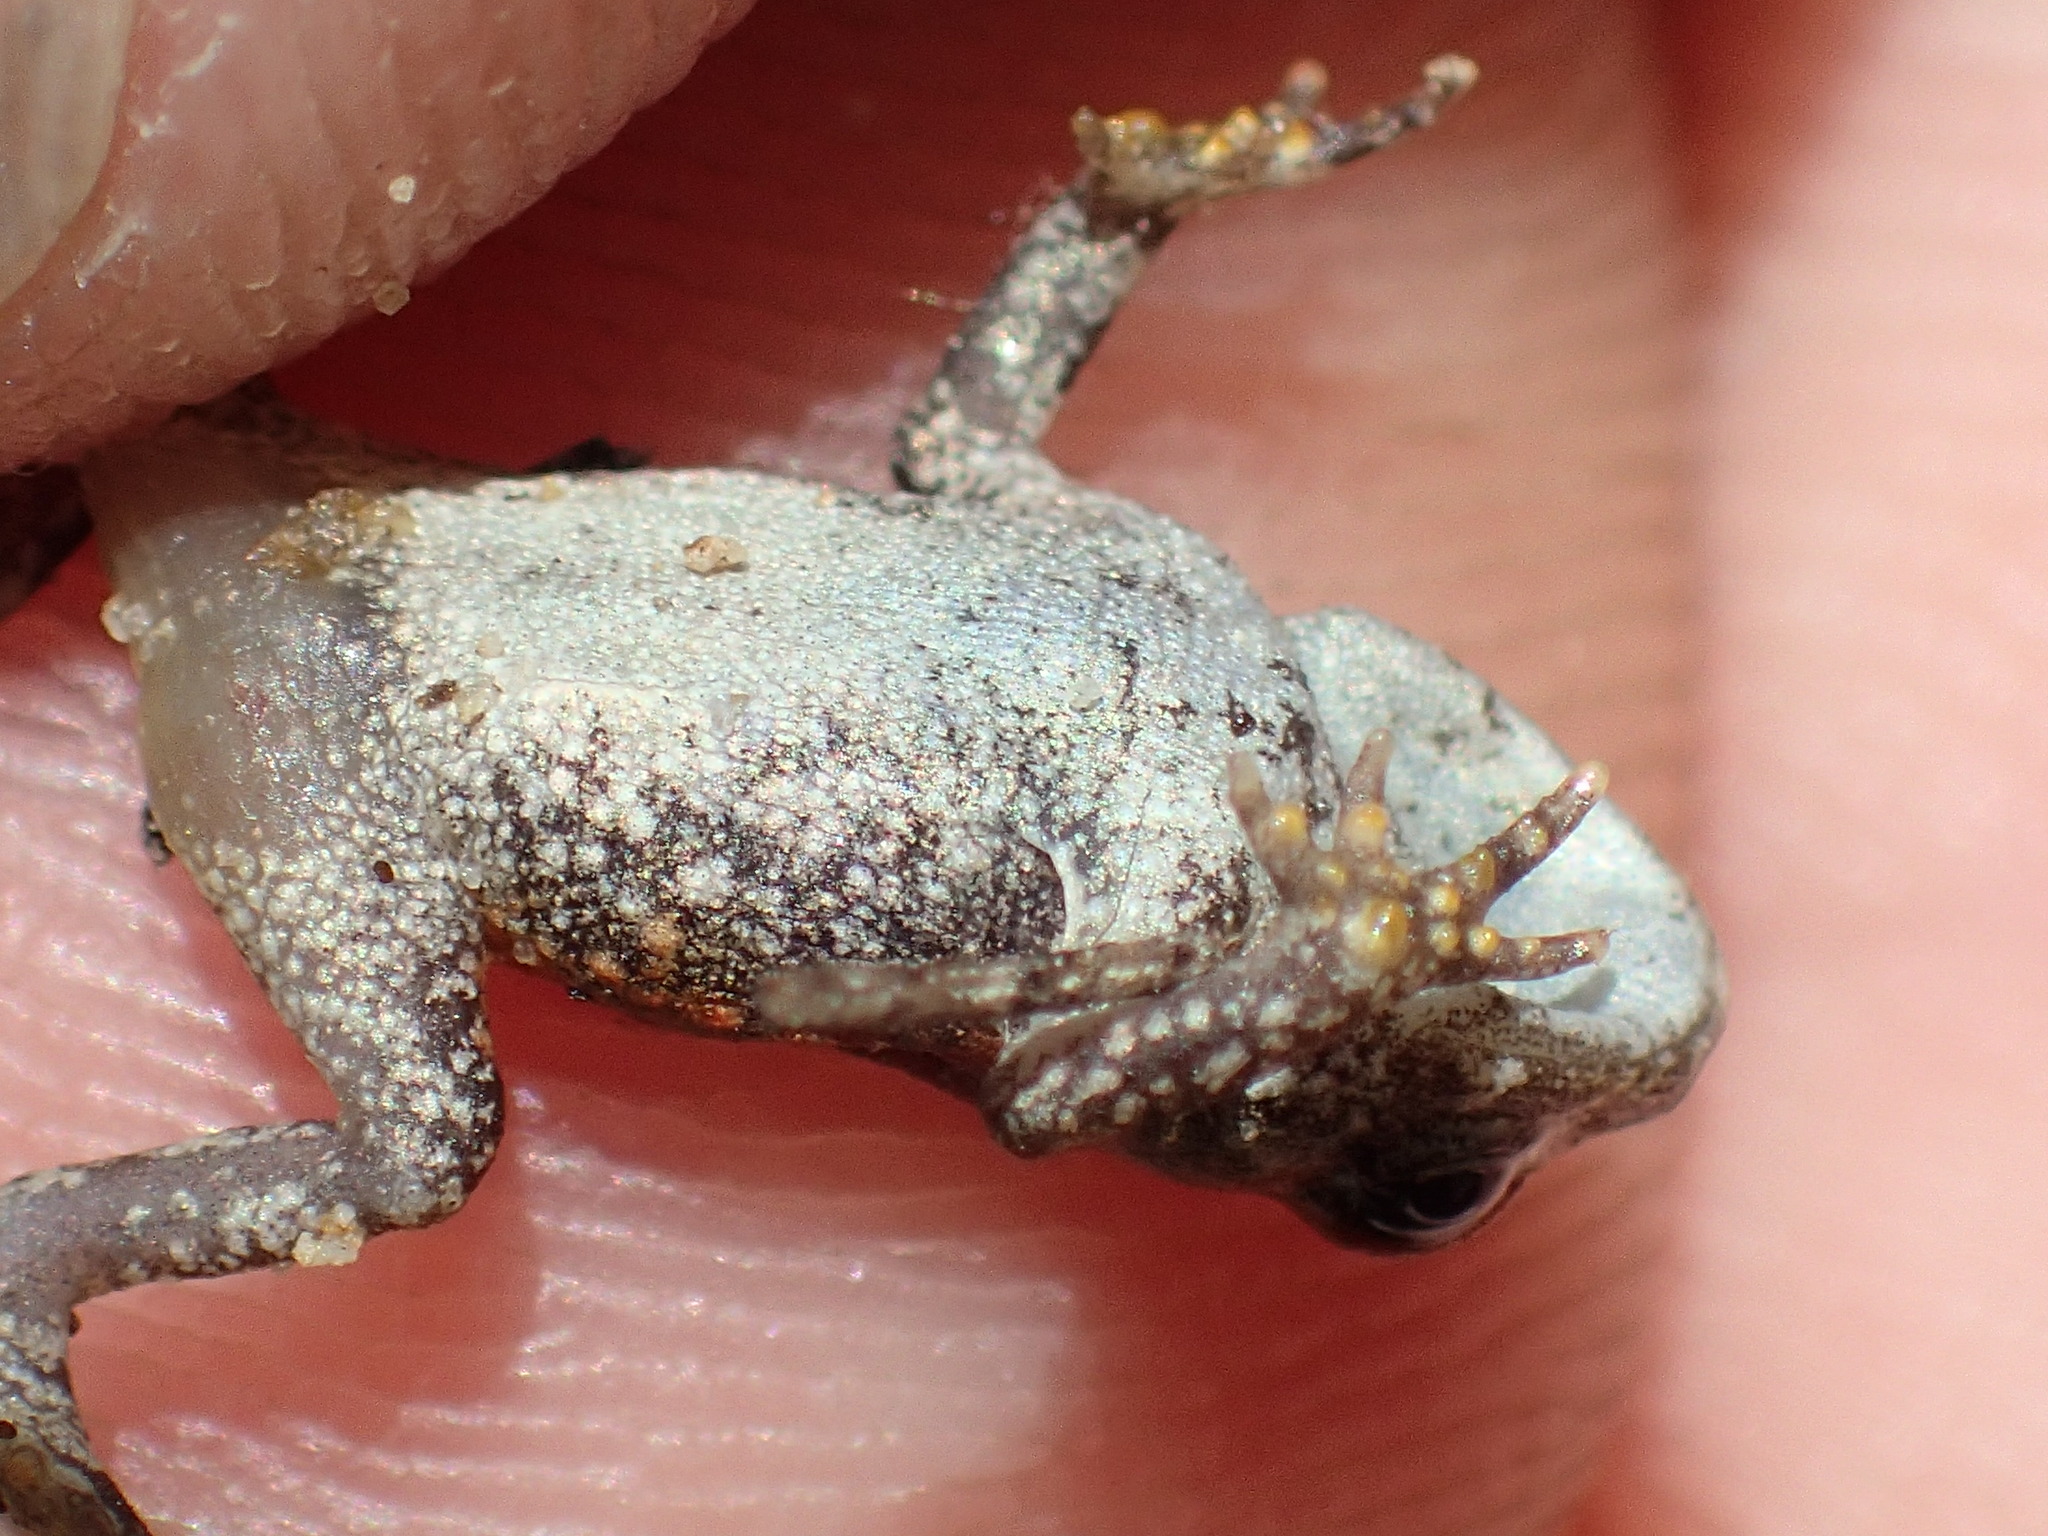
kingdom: Animalia
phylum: Chordata
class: Amphibia
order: Anura
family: Bufonidae
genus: Anaxyrus
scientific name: Anaxyrus
